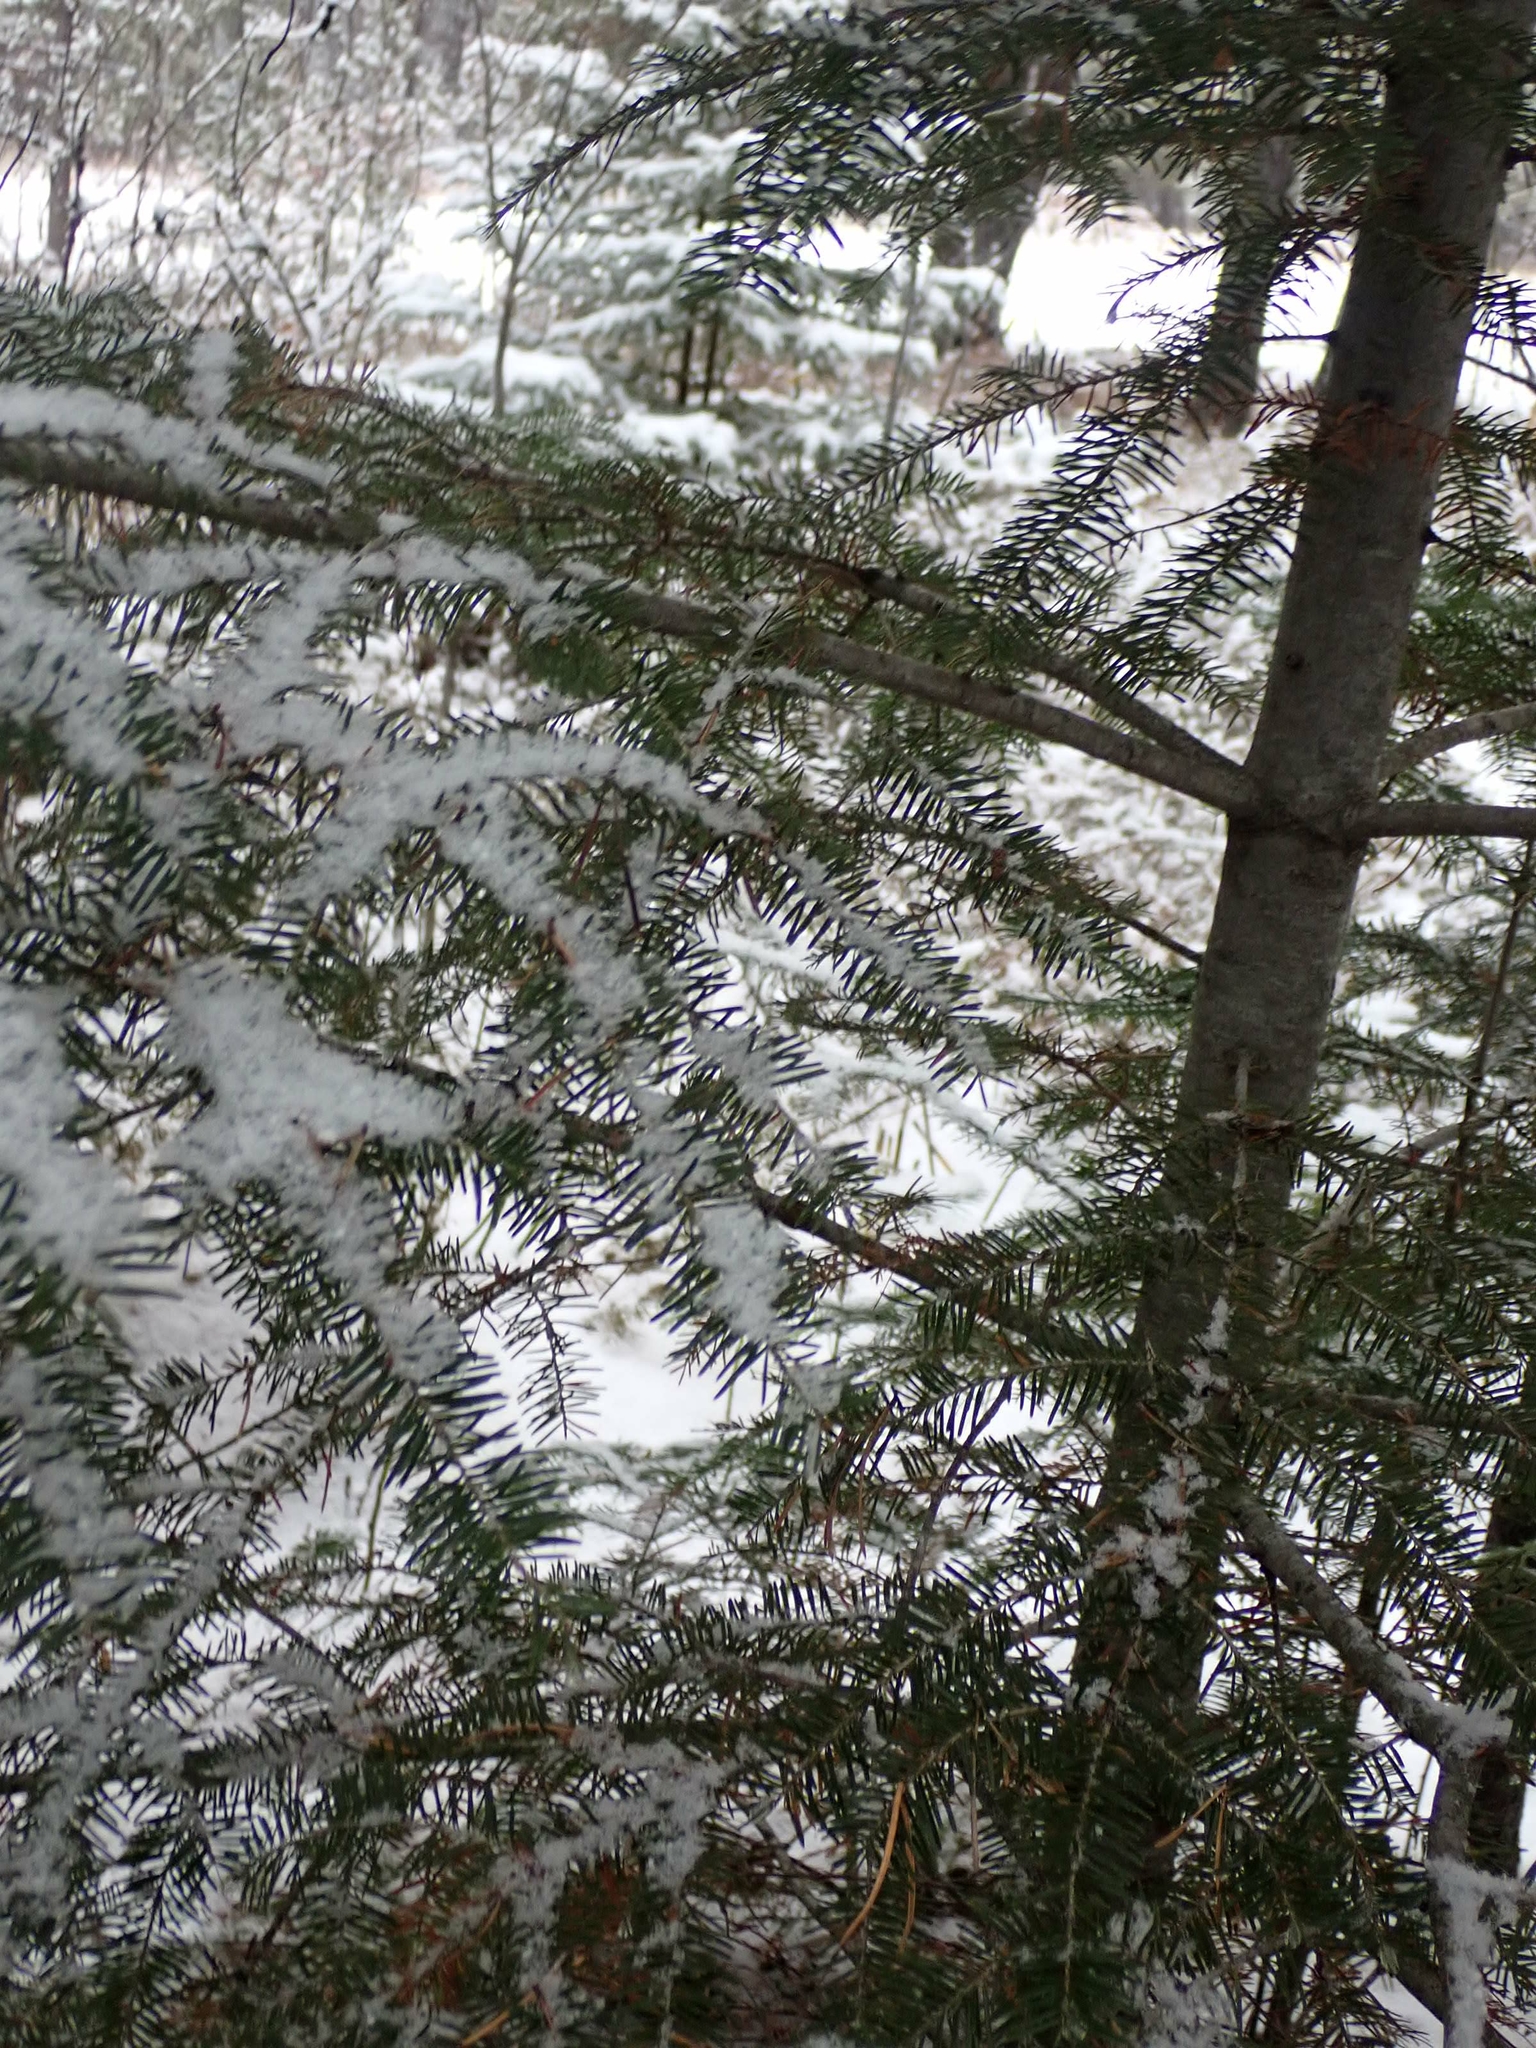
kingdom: Plantae
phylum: Tracheophyta
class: Pinopsida
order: Pinales
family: Pinaceae
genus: Abies
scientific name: Abies balsamea
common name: Balsam fir
